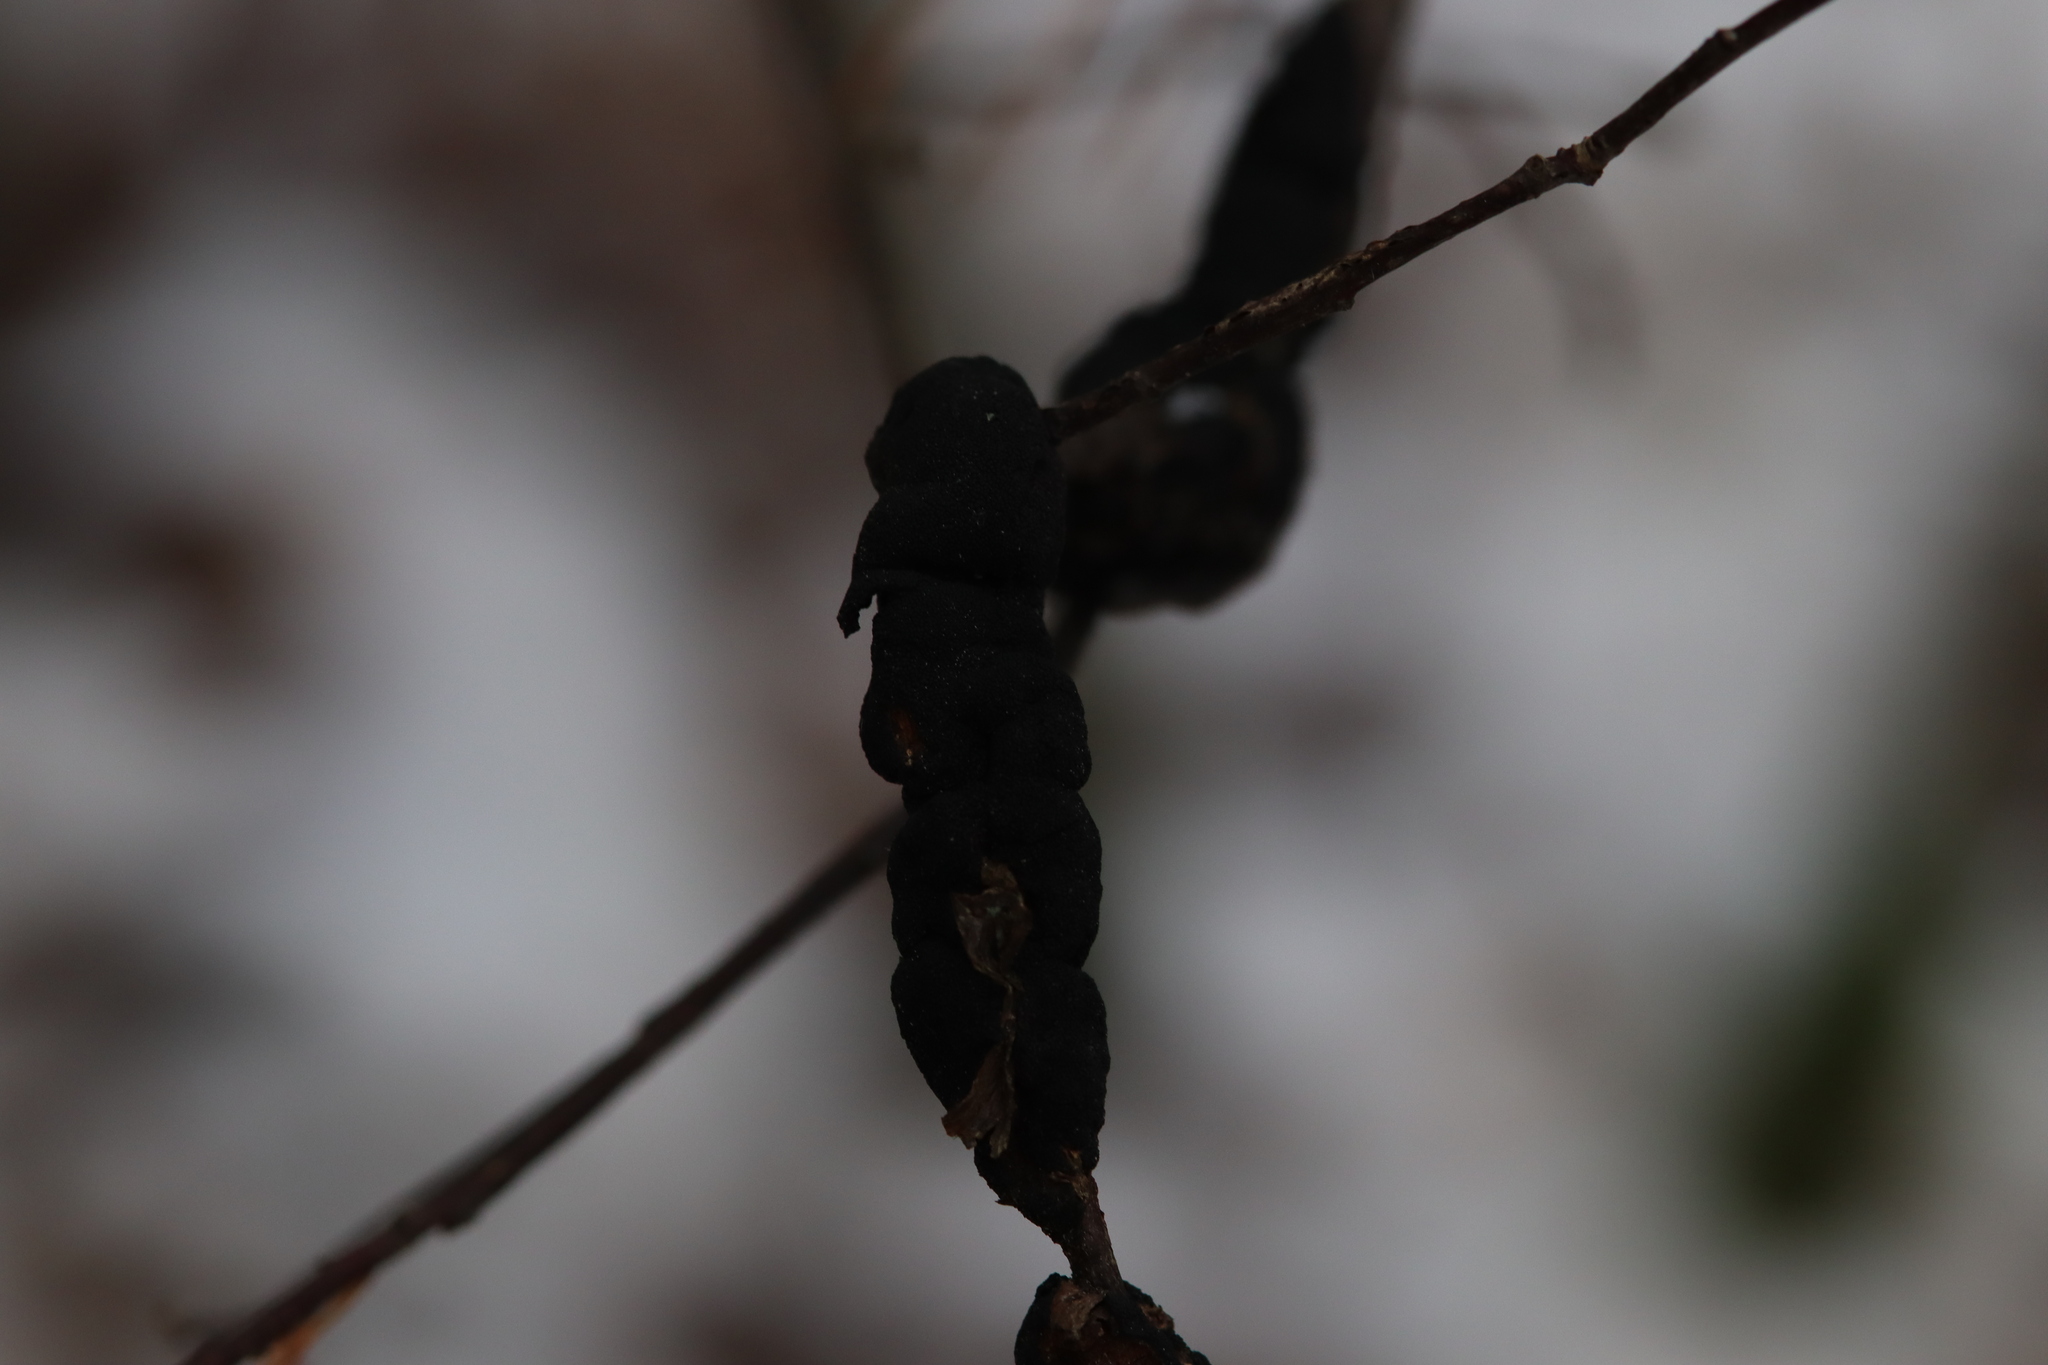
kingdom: Fungi
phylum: Ascomycota
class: Dothideomycetes
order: Venturiales
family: Venturiaceae
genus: Apiosporina
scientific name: Apiosporina morbosa
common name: Black knot
